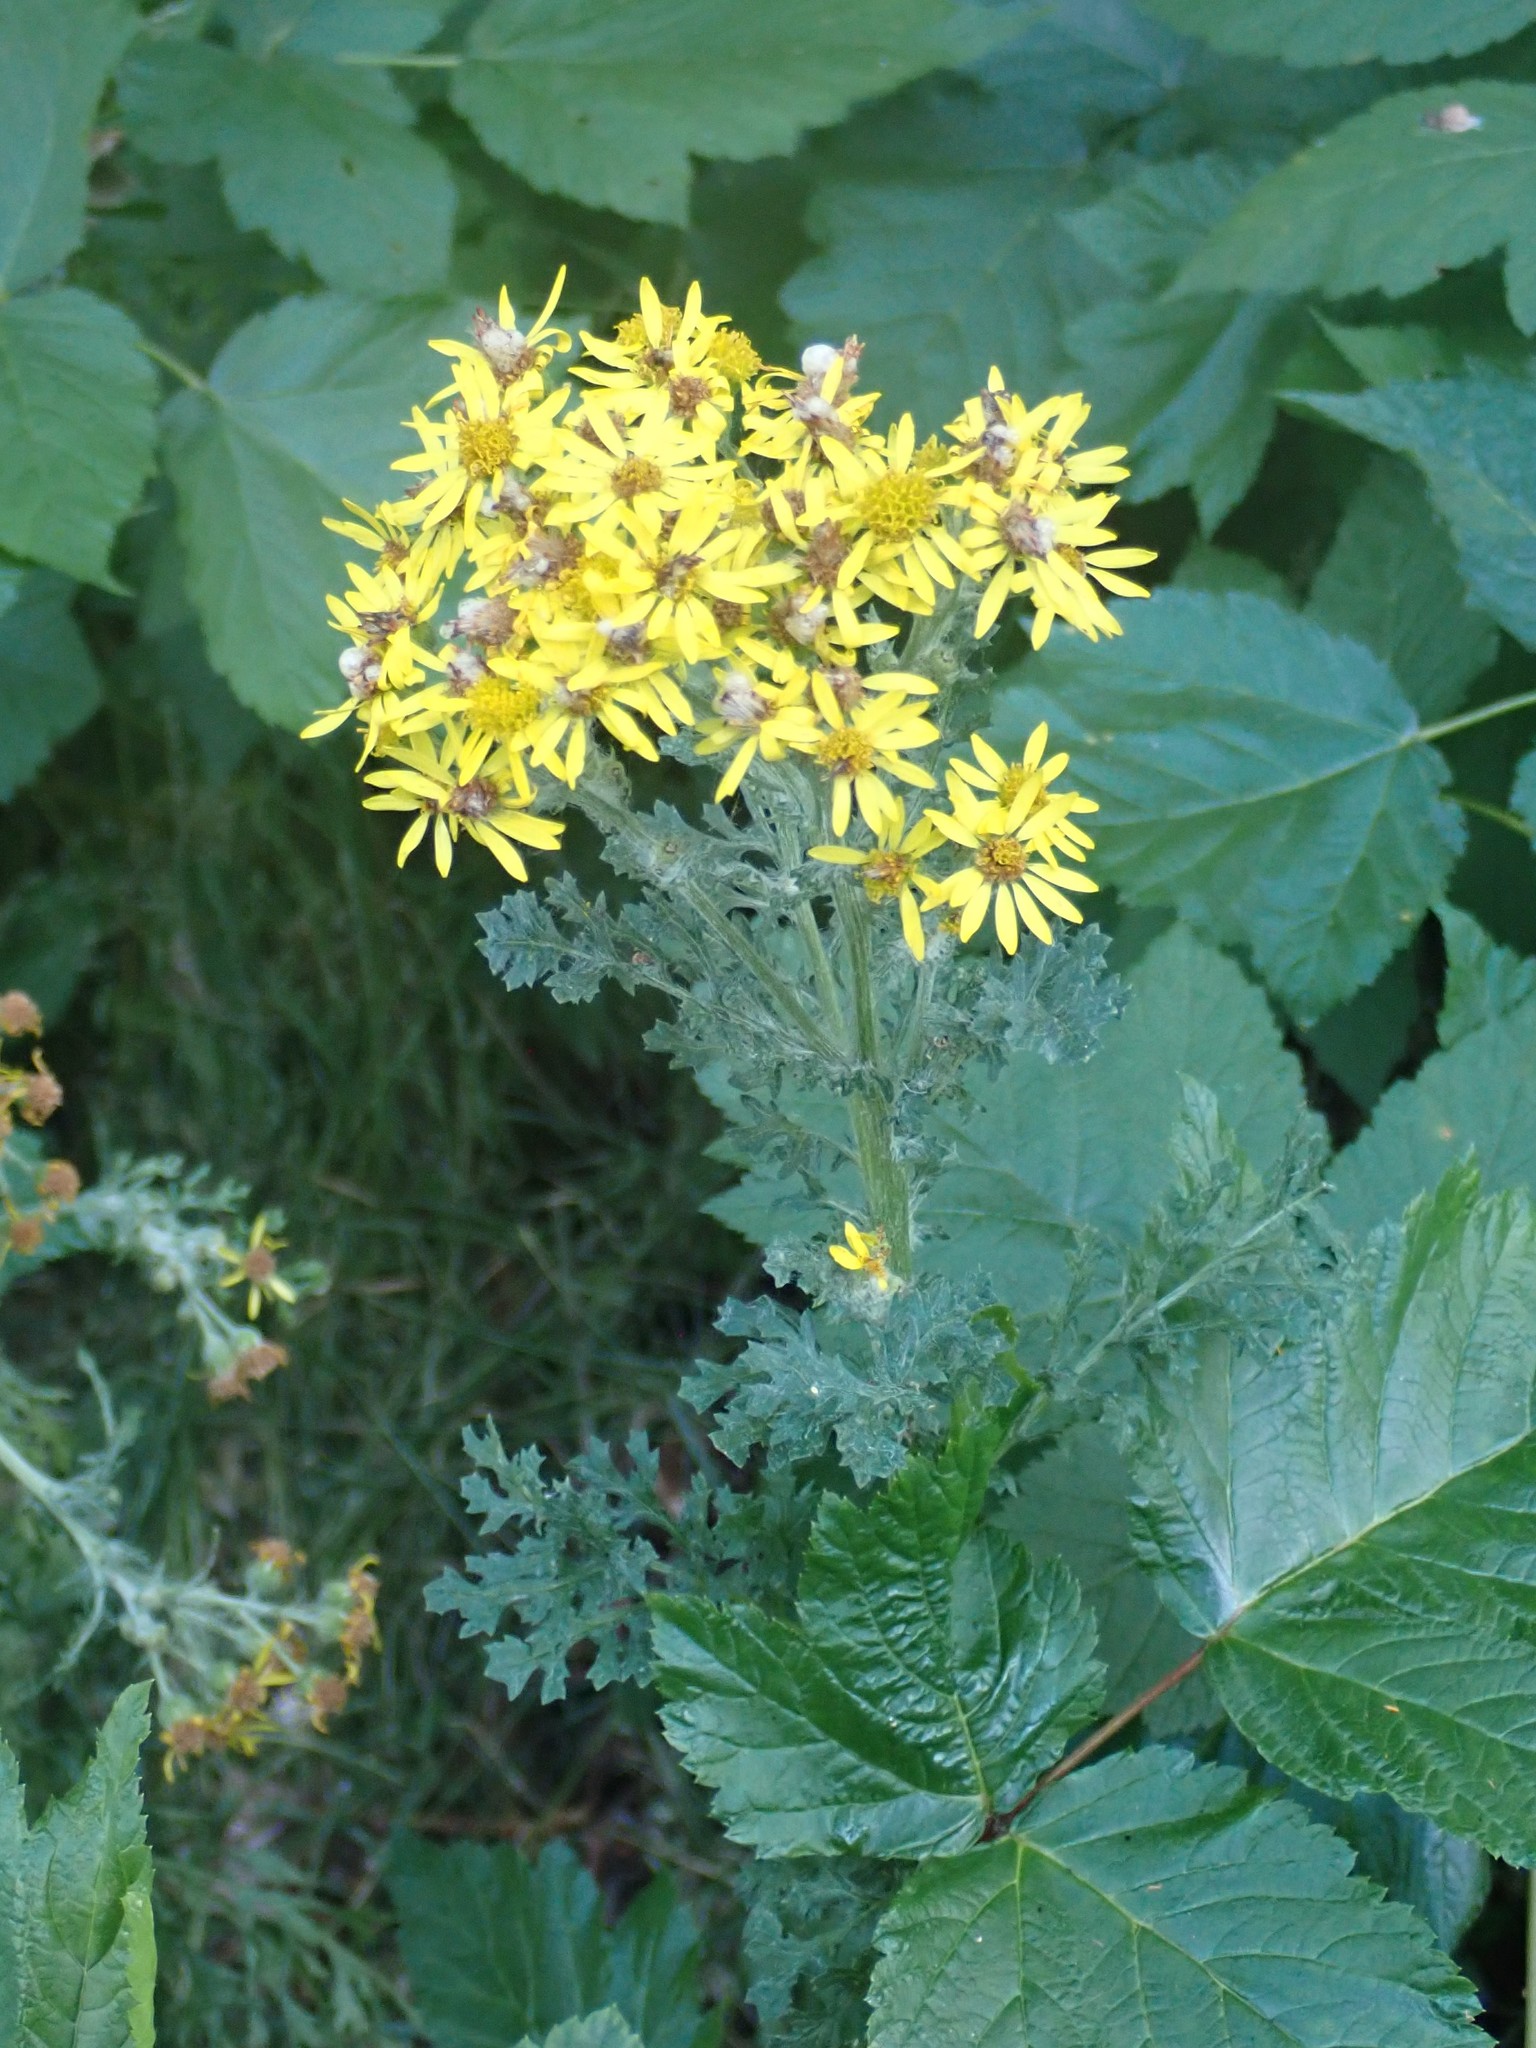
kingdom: Plantae
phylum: Tracheophyta
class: Magnoliopsida
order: Asterales
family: Asteraceae
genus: Jacobaea
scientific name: Jacobaea vulgaris
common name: Stinking willie
